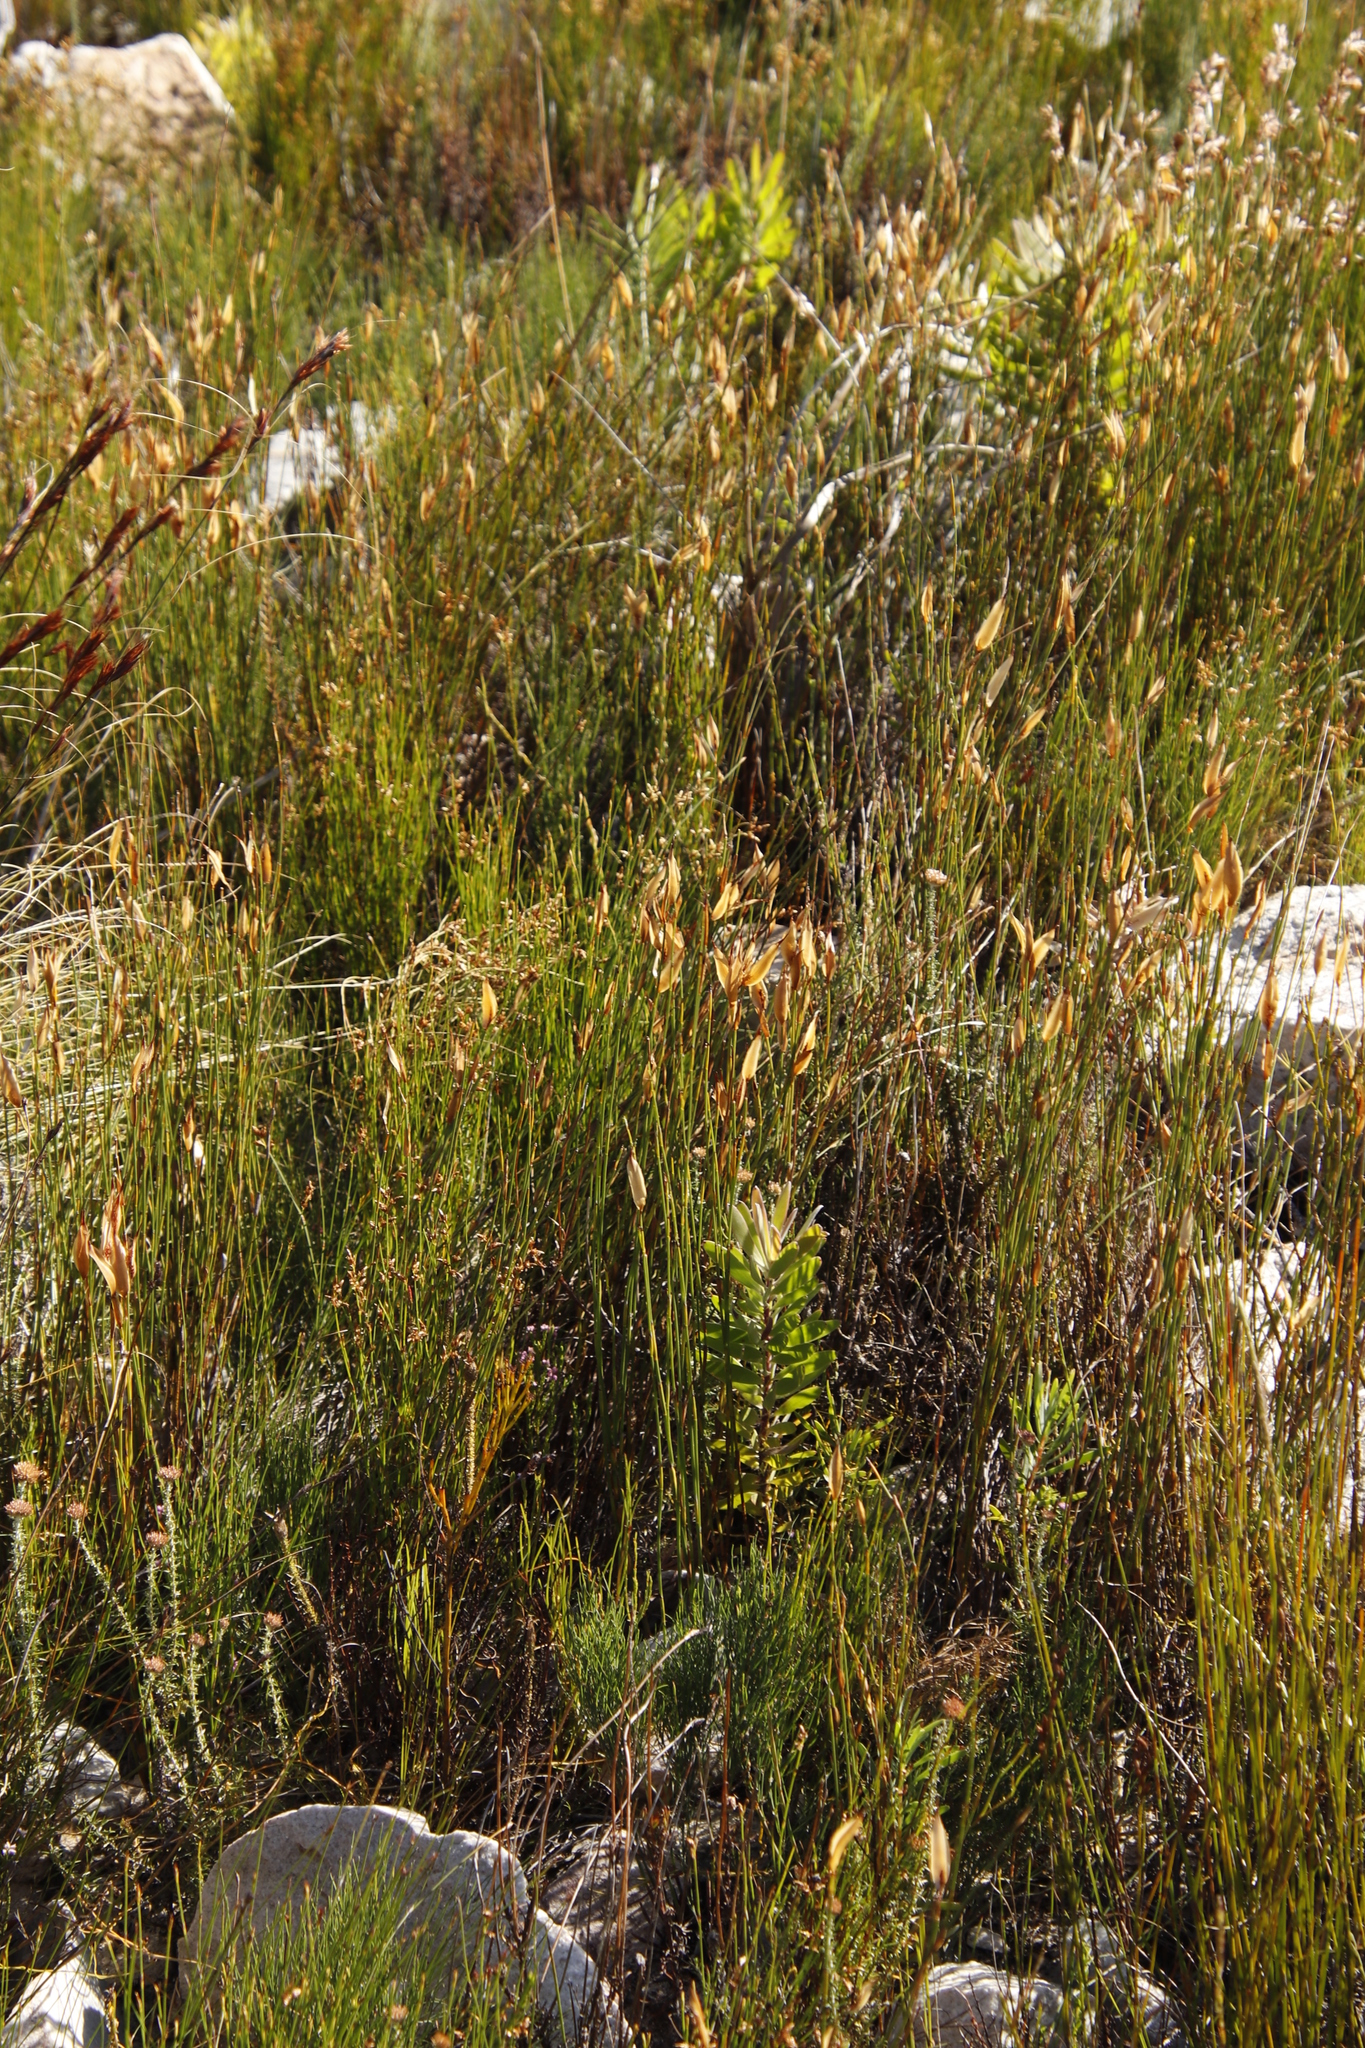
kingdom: Plantae
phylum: Tracheophyta
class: Liliopsida
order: Poales
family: Restionaceae
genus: Willdenowia
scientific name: Willdenowia glomerata
